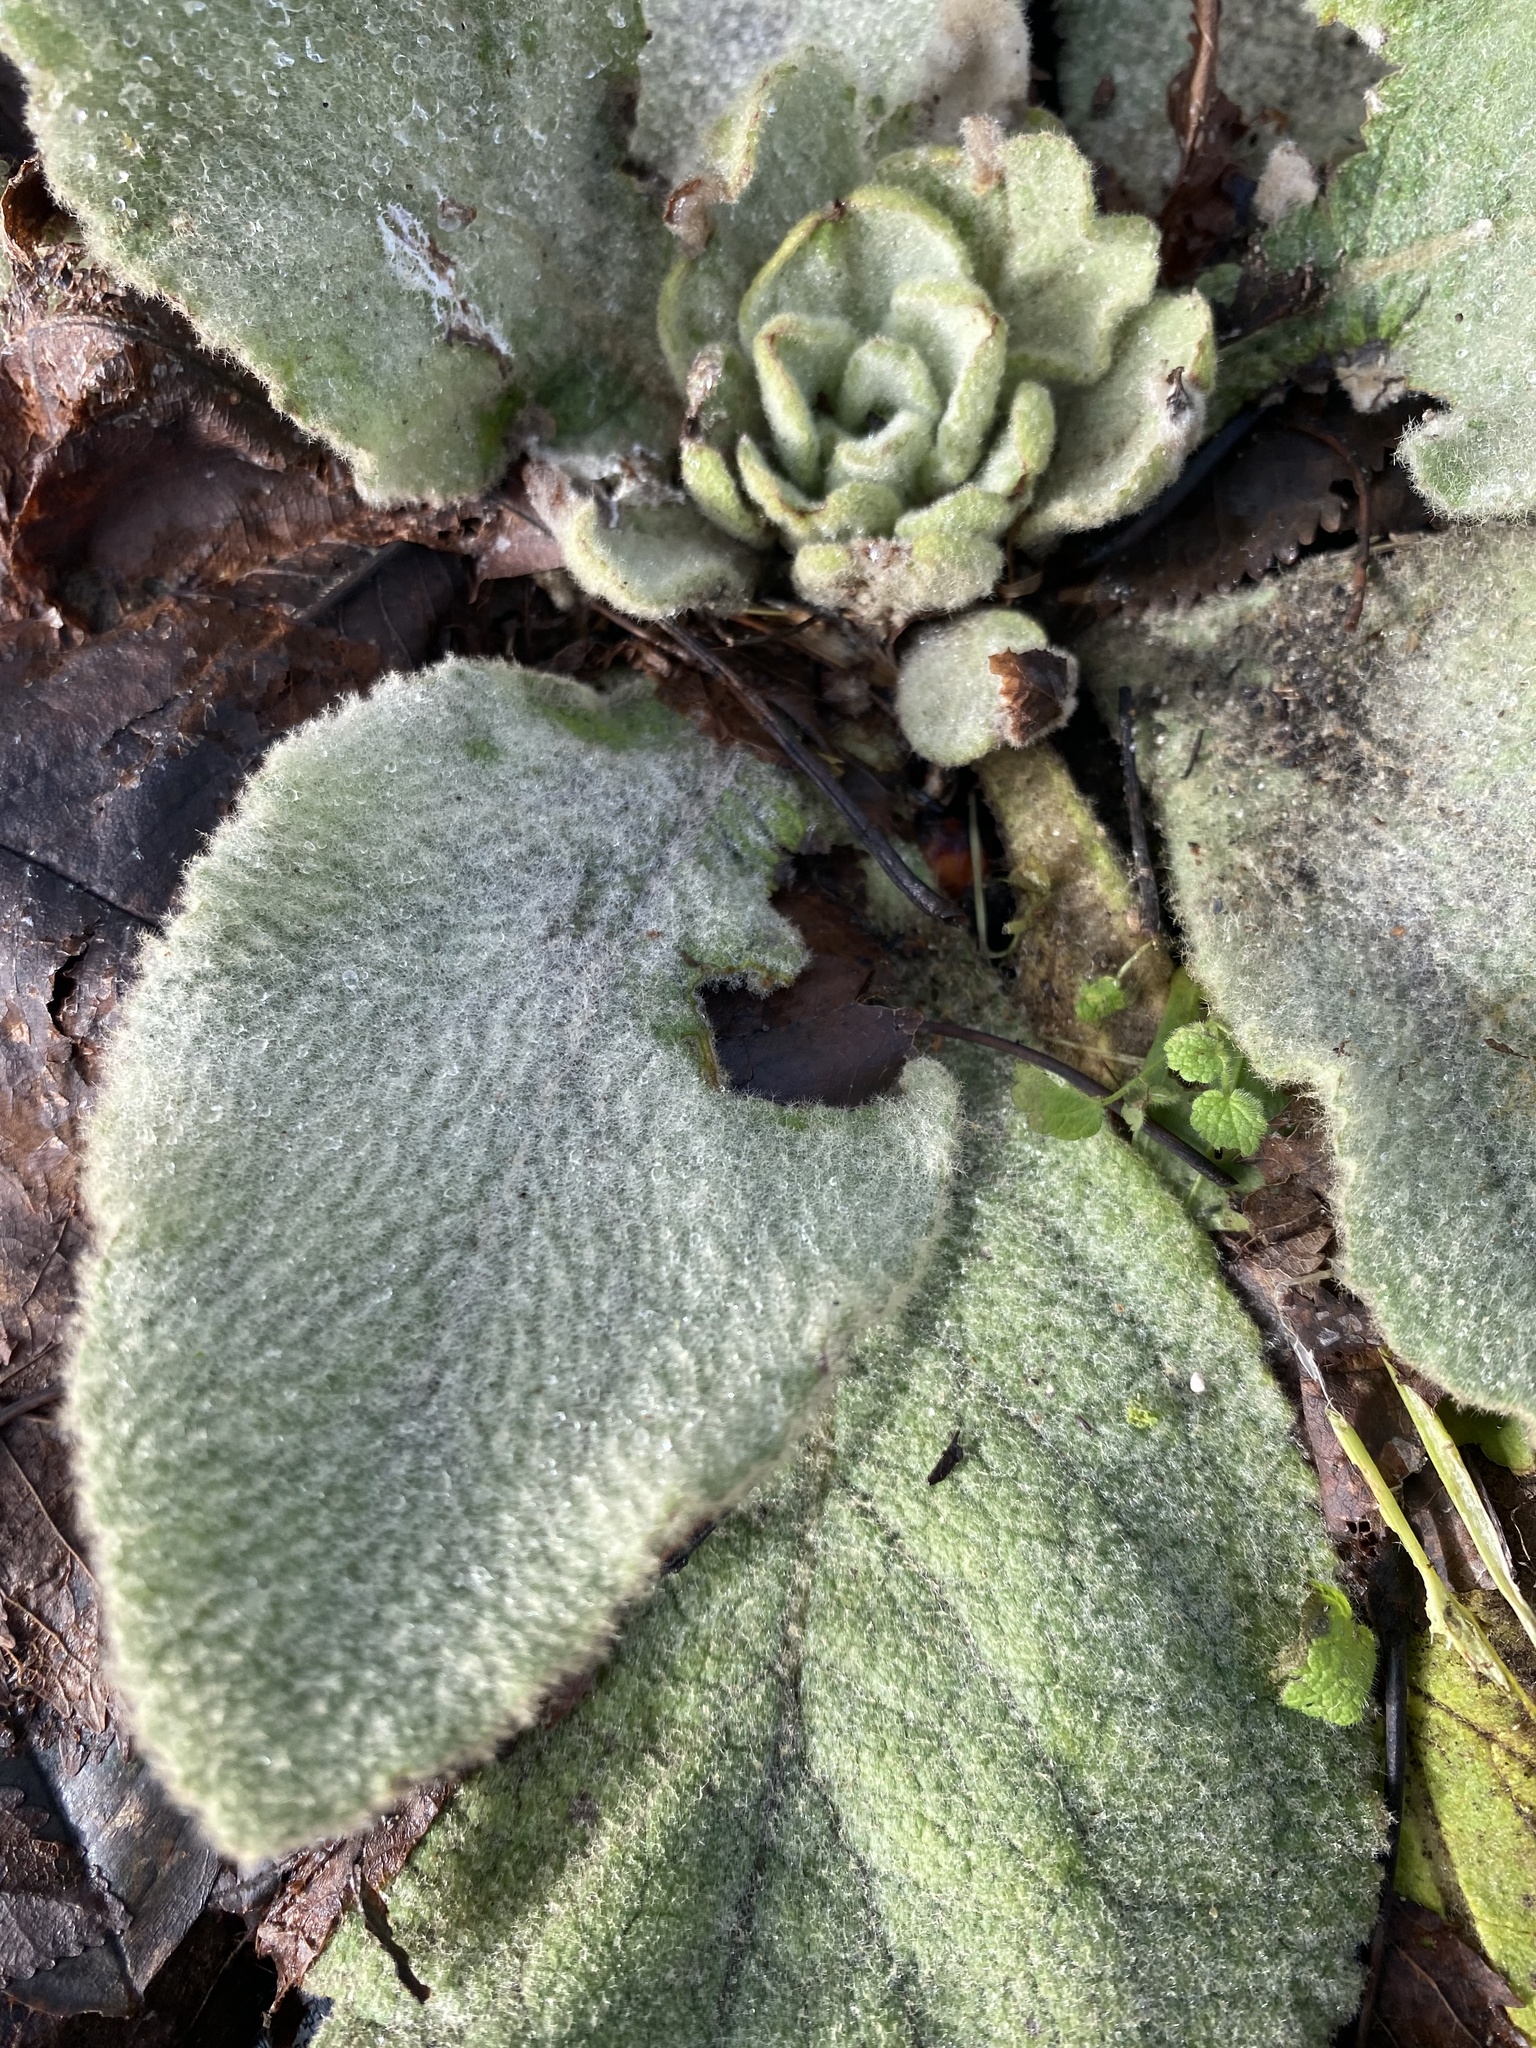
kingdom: Plantae
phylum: Tracheophyta
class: Magnoliopsida
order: Lamiales
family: Scrophulariaceae
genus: Verbascum
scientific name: Verbascum thapsus
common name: Common mullein
